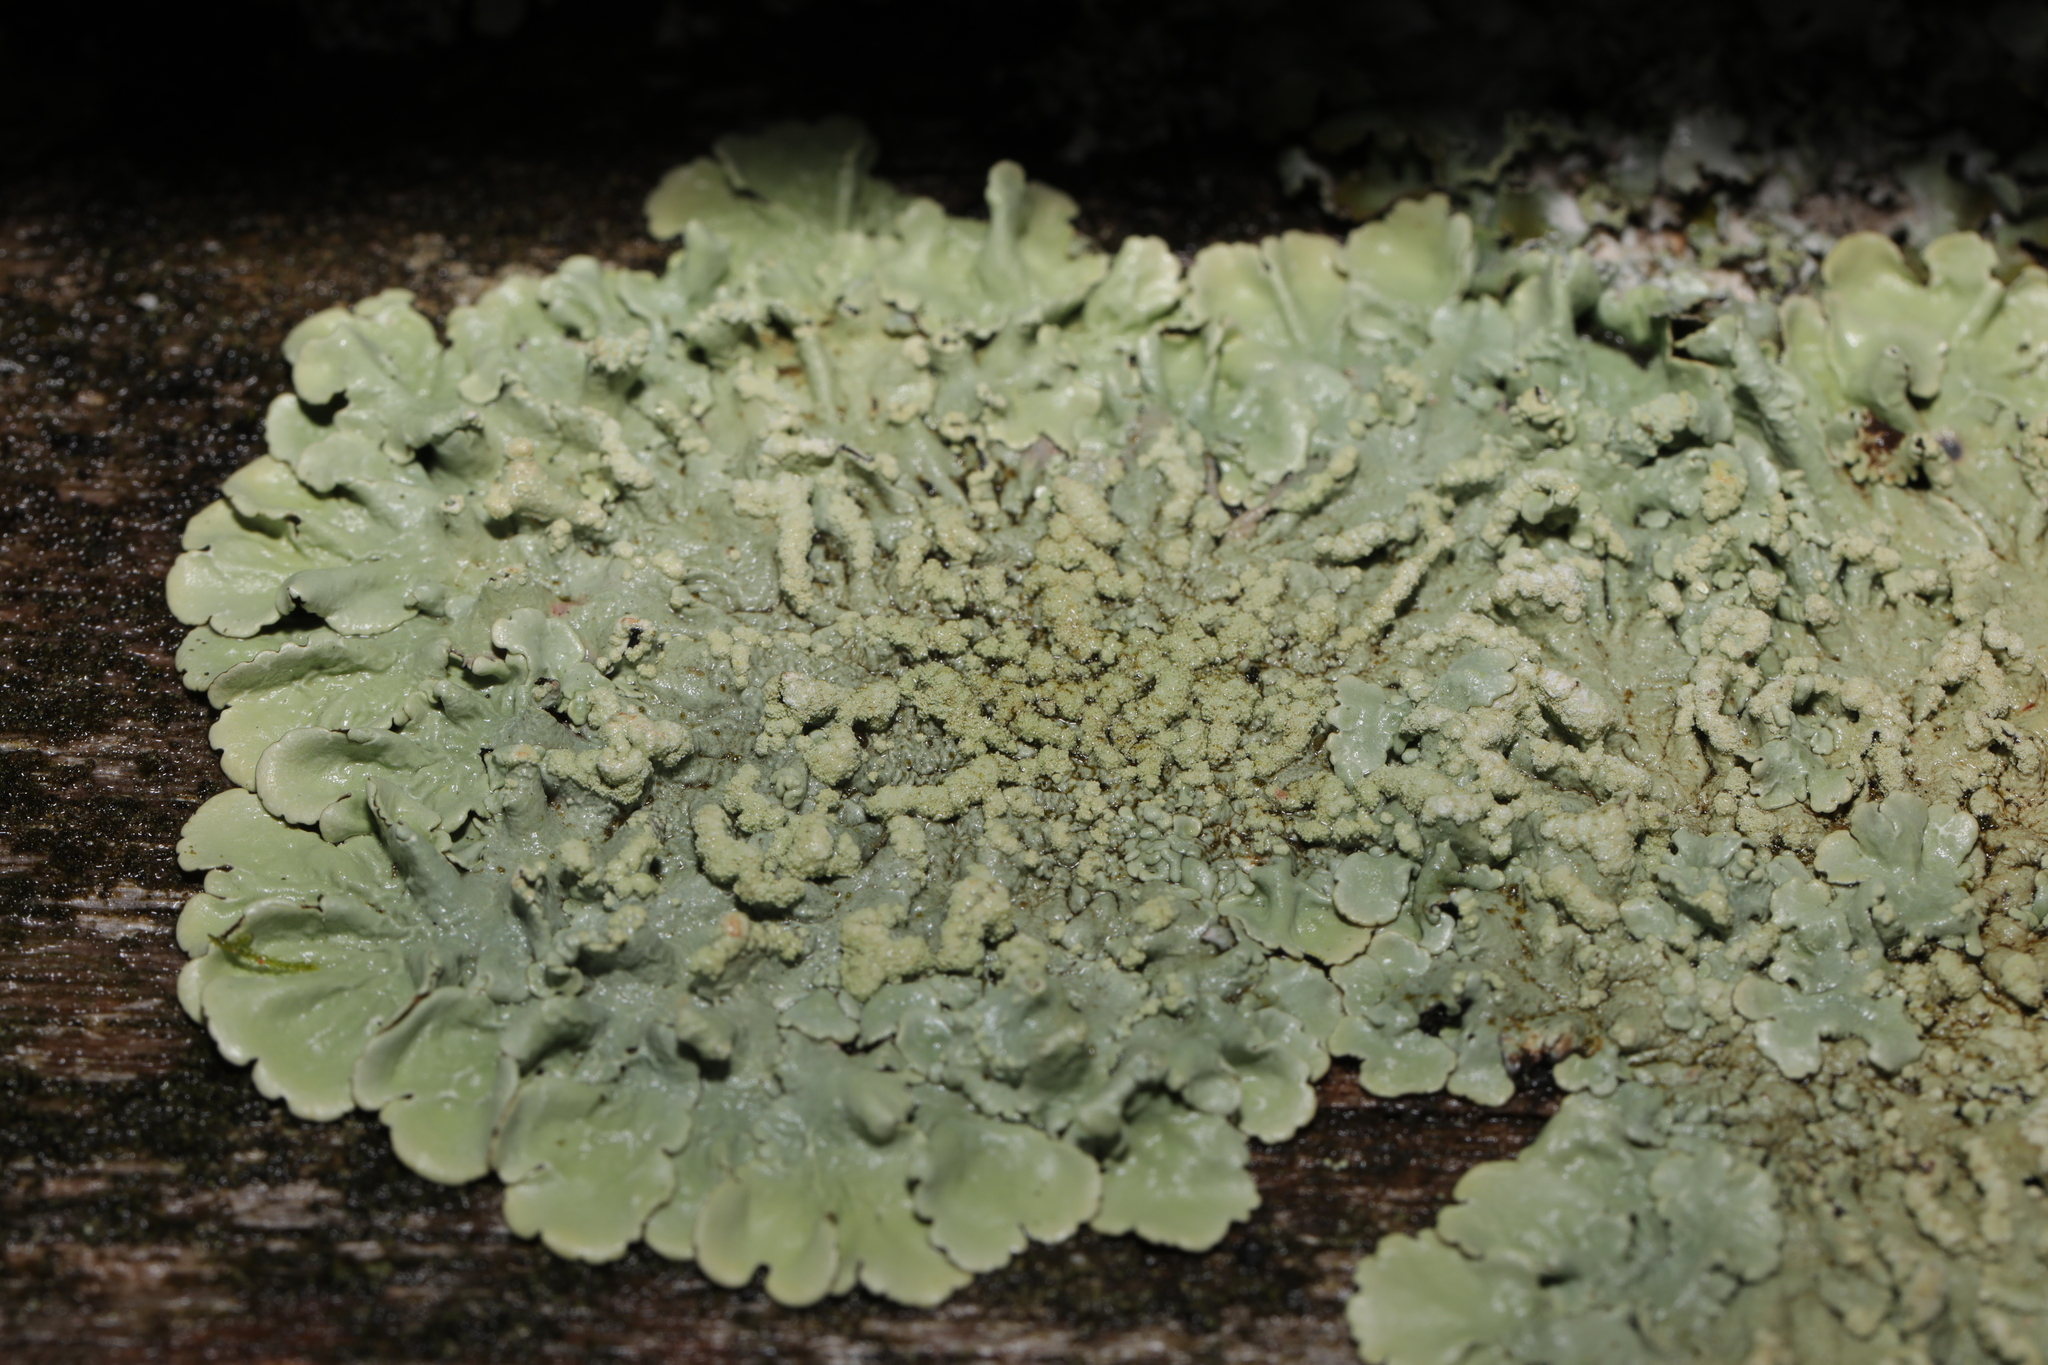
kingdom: Fungi
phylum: Ascomycota
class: Lecanoromycetes
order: Lecanorales
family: Parmeliaceae
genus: Flavoparmelia
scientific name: Flavoparmelia soredians
